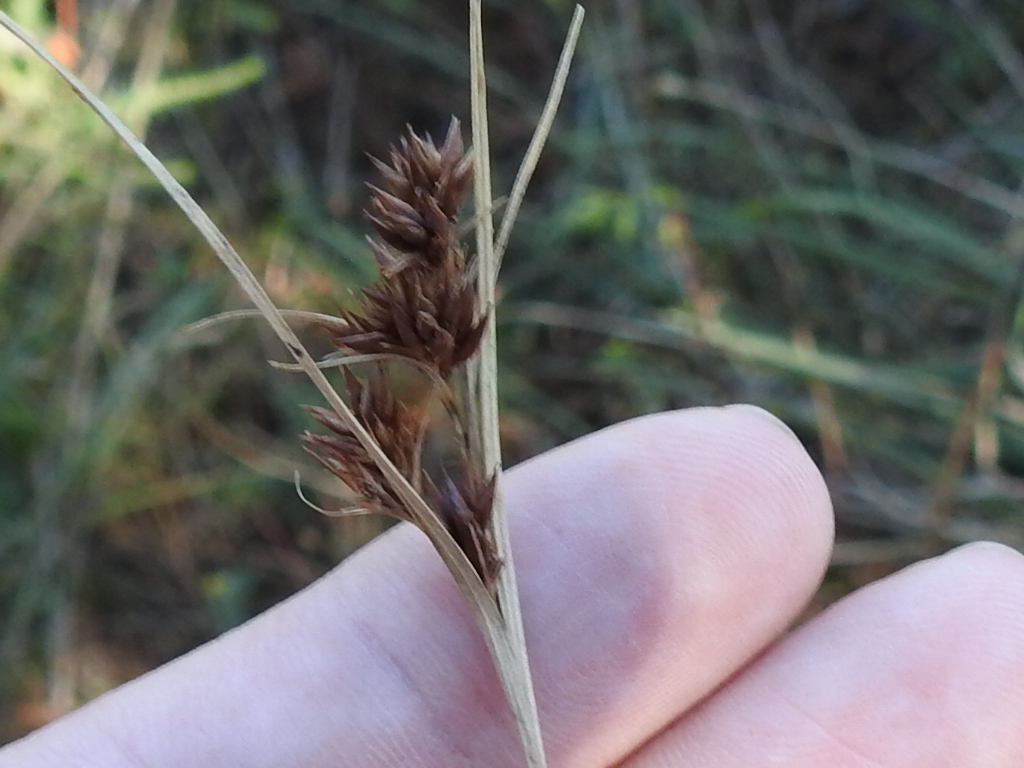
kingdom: Plantae
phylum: Tracheophyta
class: Liliopsida
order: Poales
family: Cyperaceae
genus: Rhynchospora
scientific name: Rhynchospora recognita
